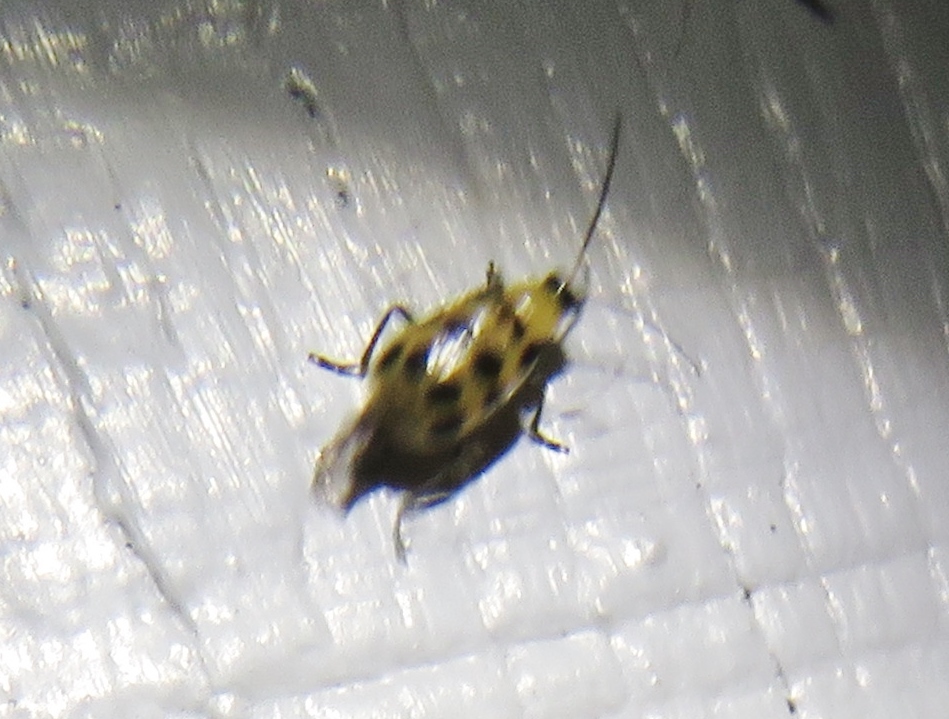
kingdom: Animalia
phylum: Arthropoda
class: Insecta
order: Coleoptera
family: Chrysomelidae
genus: Diabrotica
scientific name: Diabrotica undecimpunctata
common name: Spotted cucumber beetle
